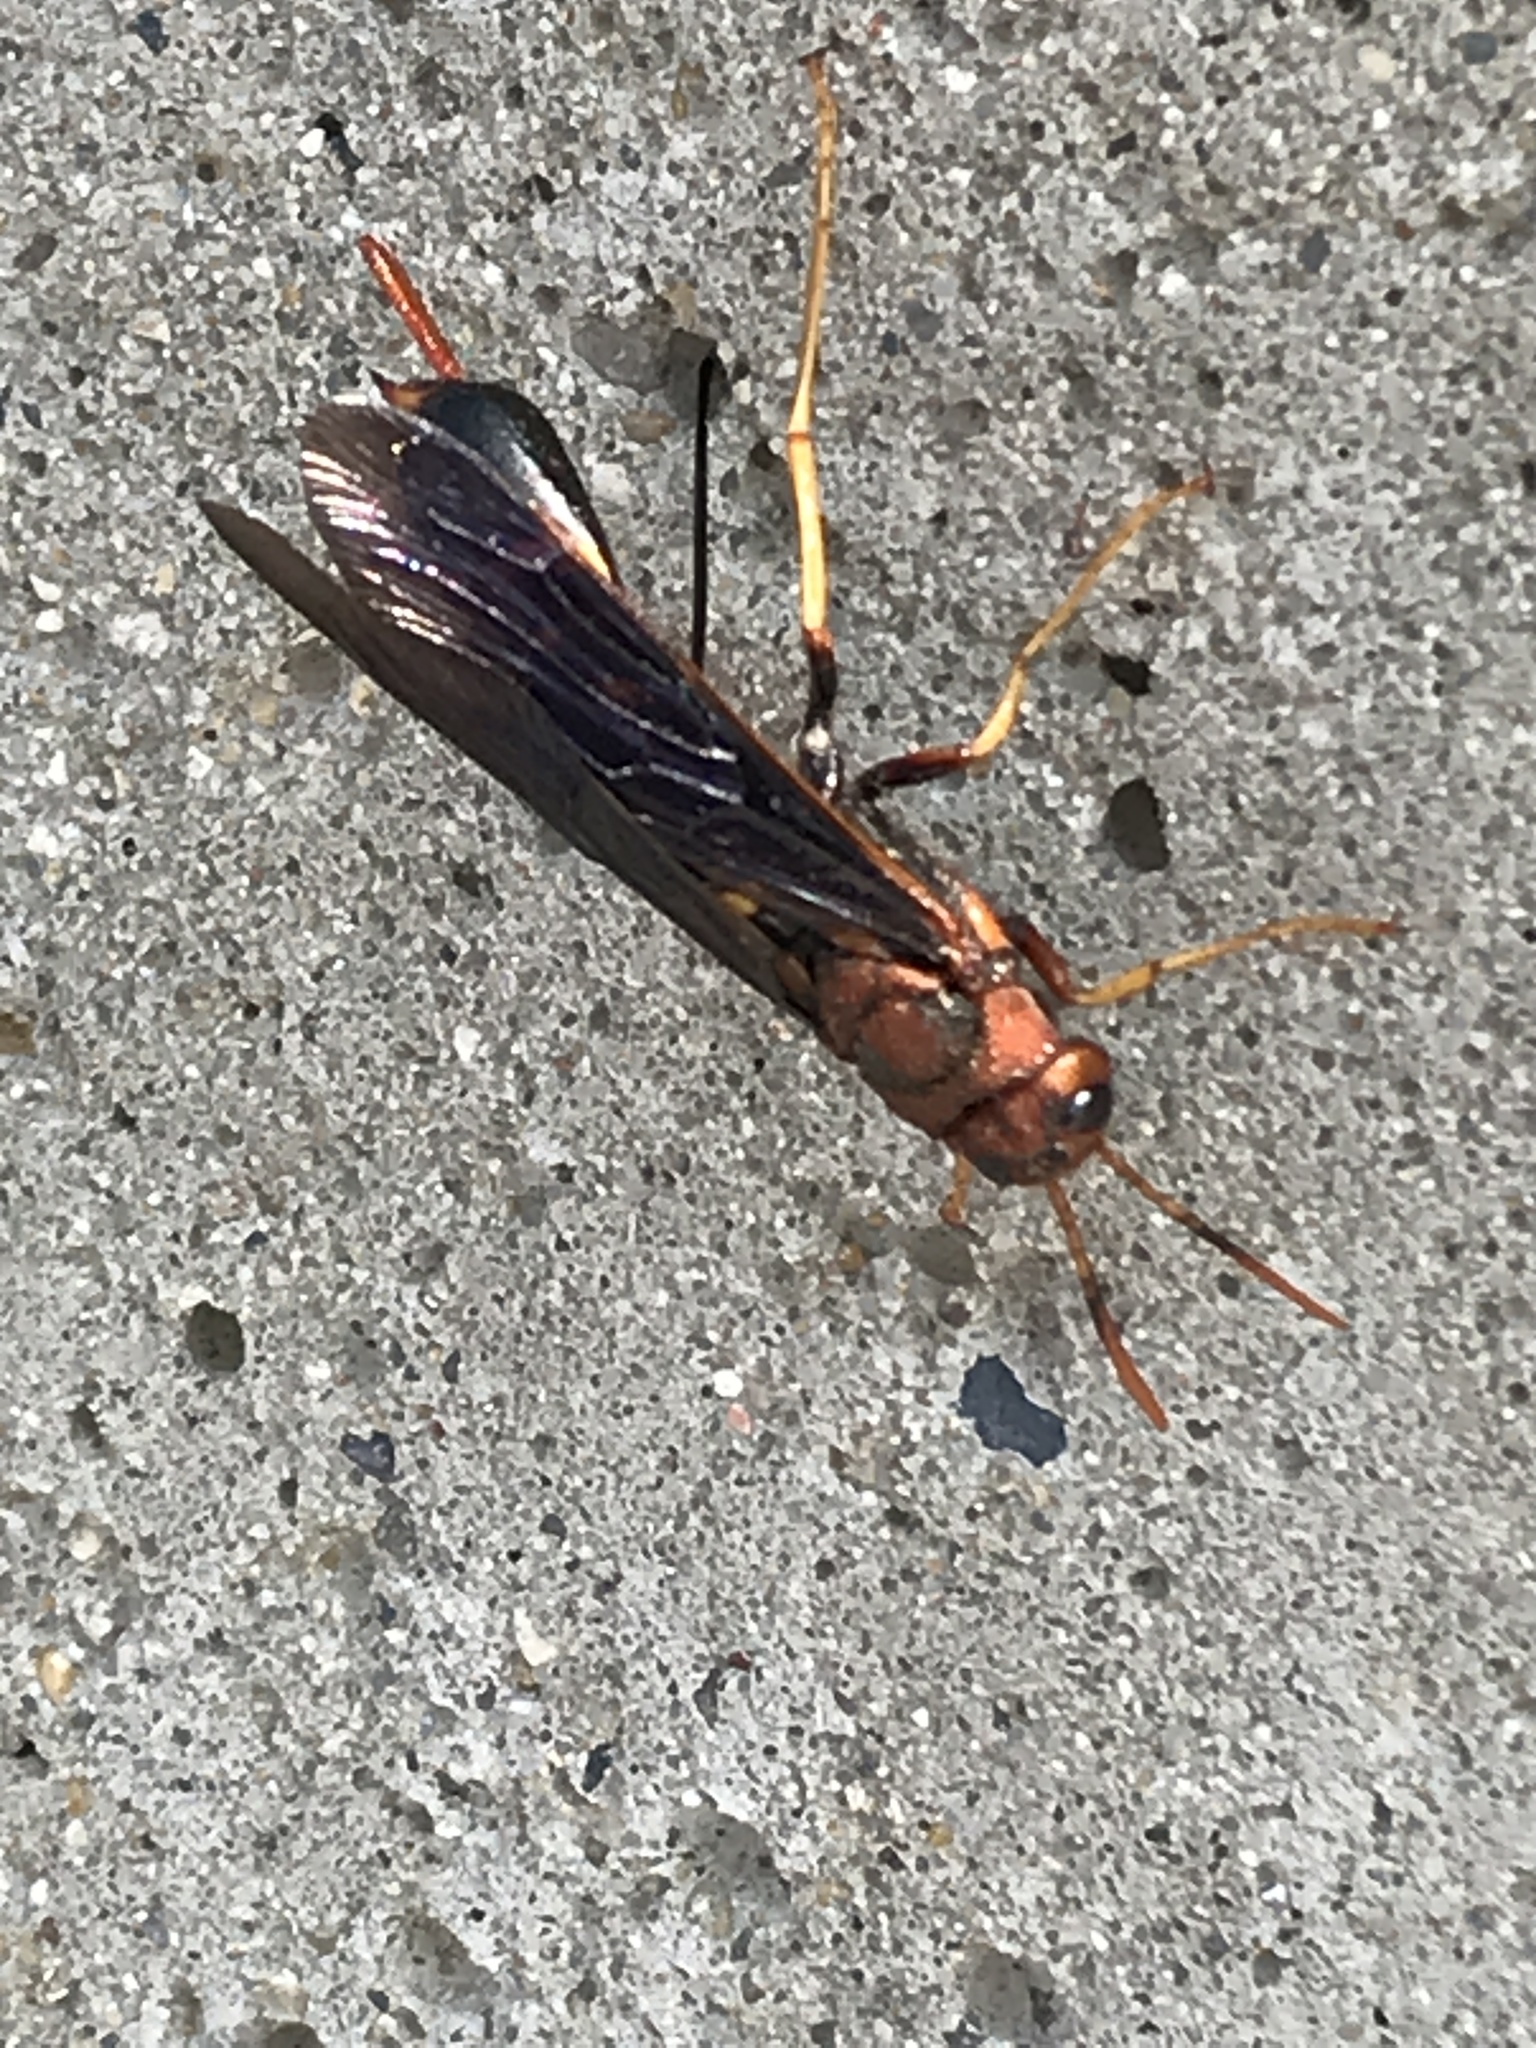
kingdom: Animalia
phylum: Arthropoda
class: Insecta
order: Hymenoptera
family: Siricidae
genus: Tremex
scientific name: Tremex columba
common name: Wasp
